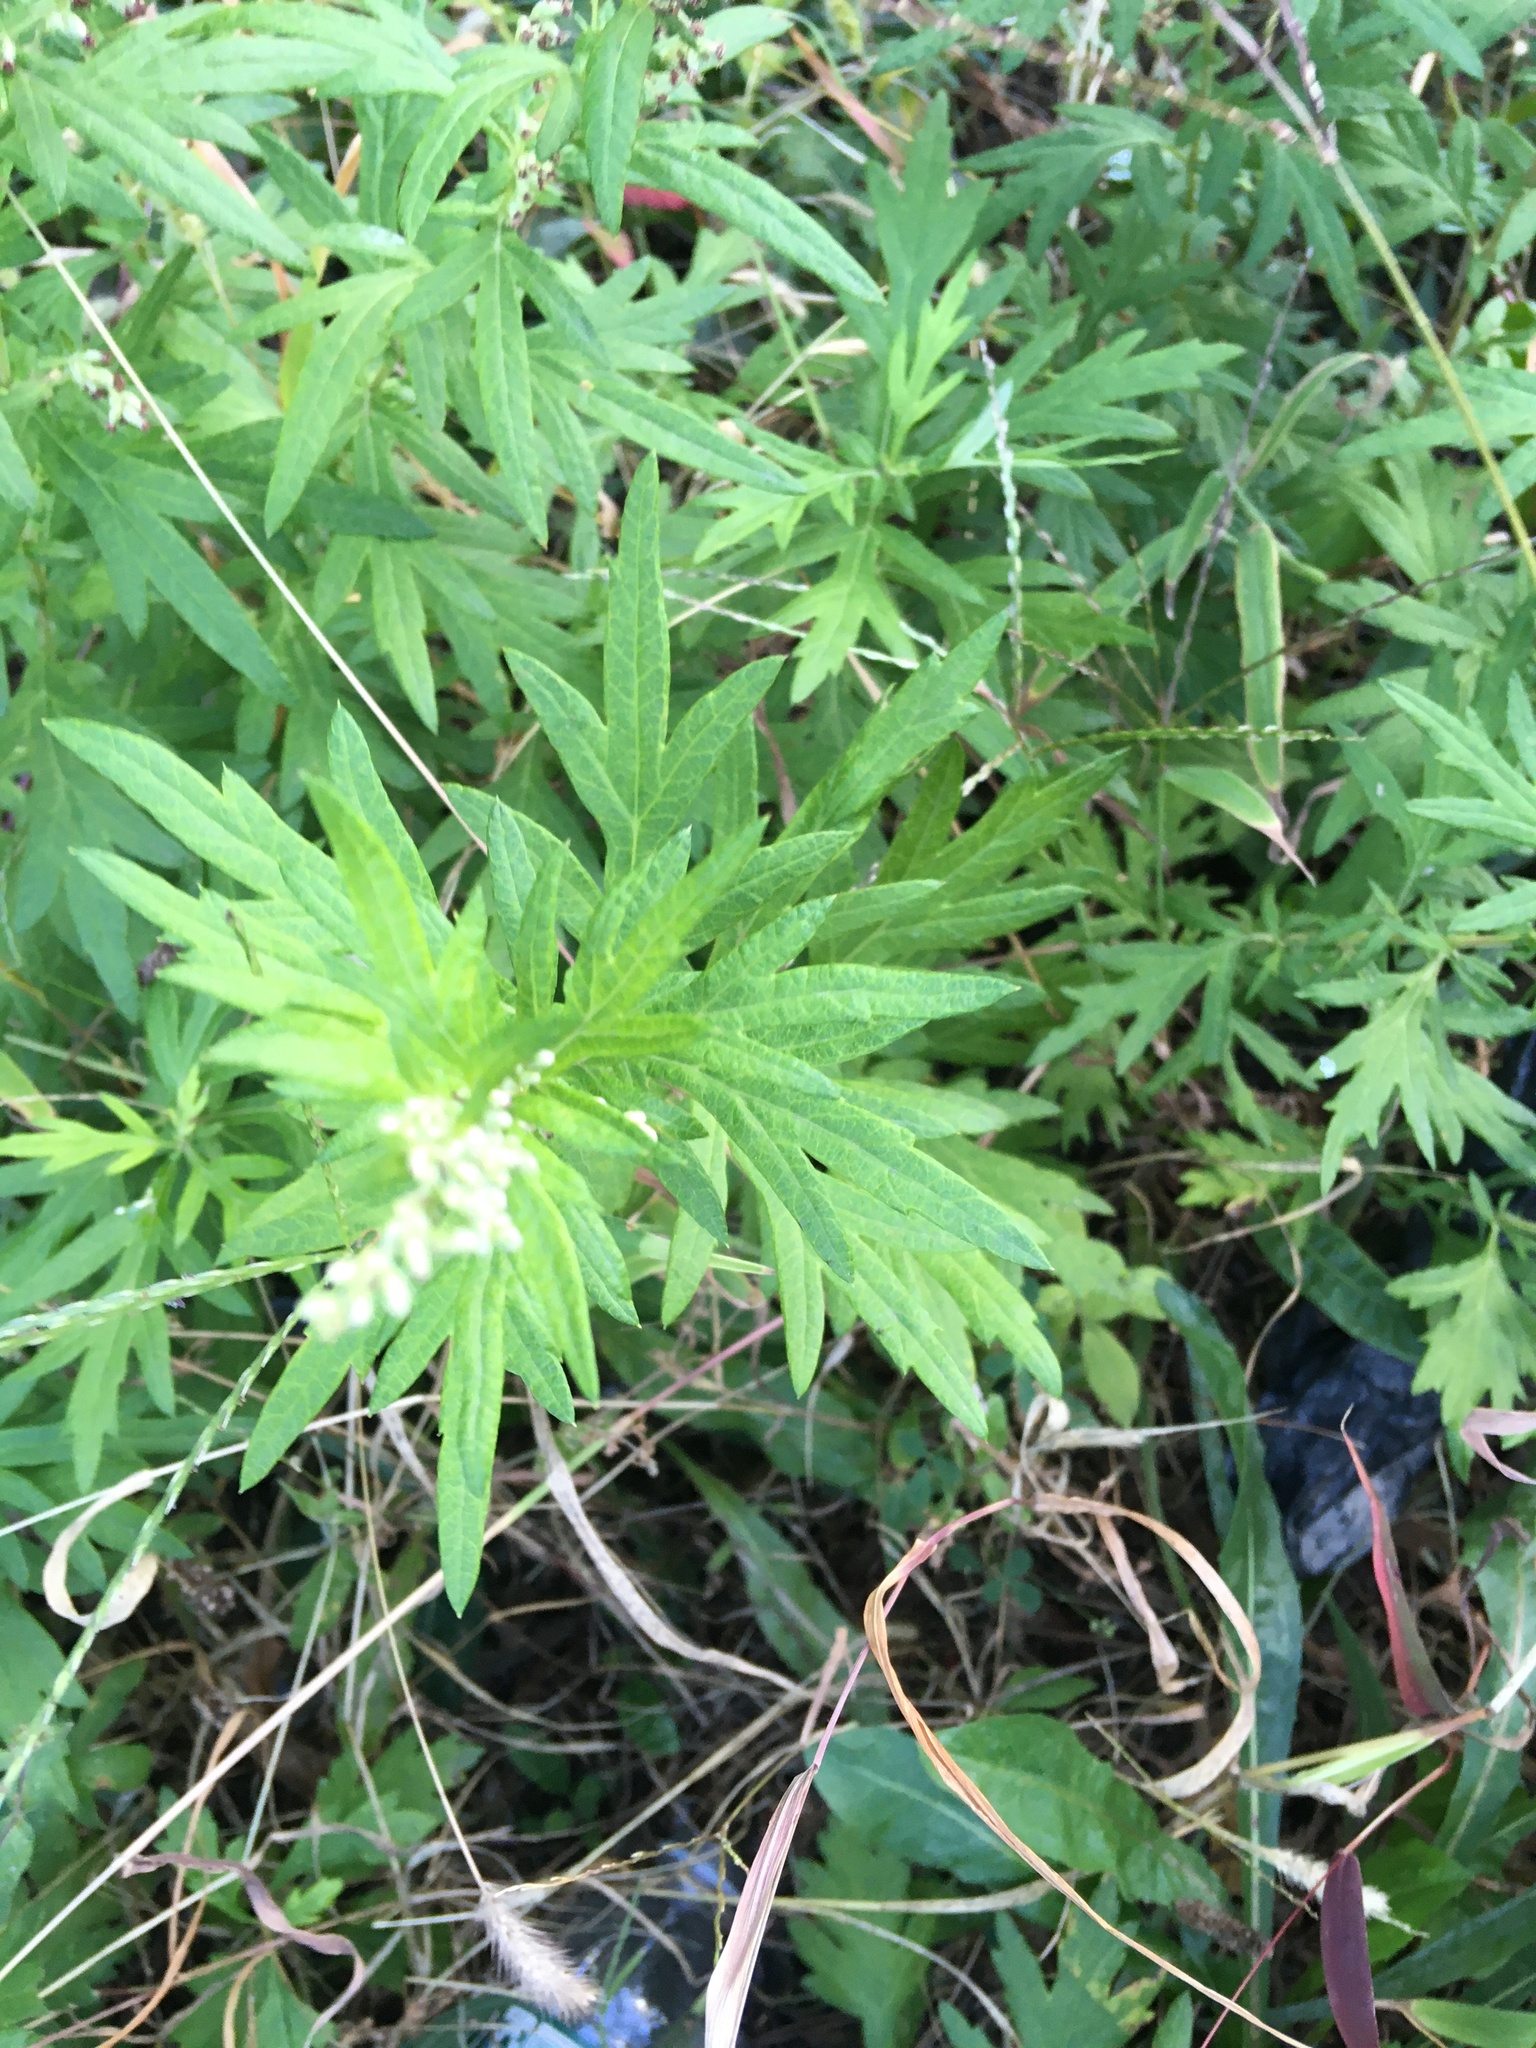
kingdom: Plantae
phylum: Tracheophyta
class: Magnoliopsida
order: Asterales
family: Asteraceae
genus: Artemisia
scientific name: Artemisia vulgaris
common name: Mugwort
